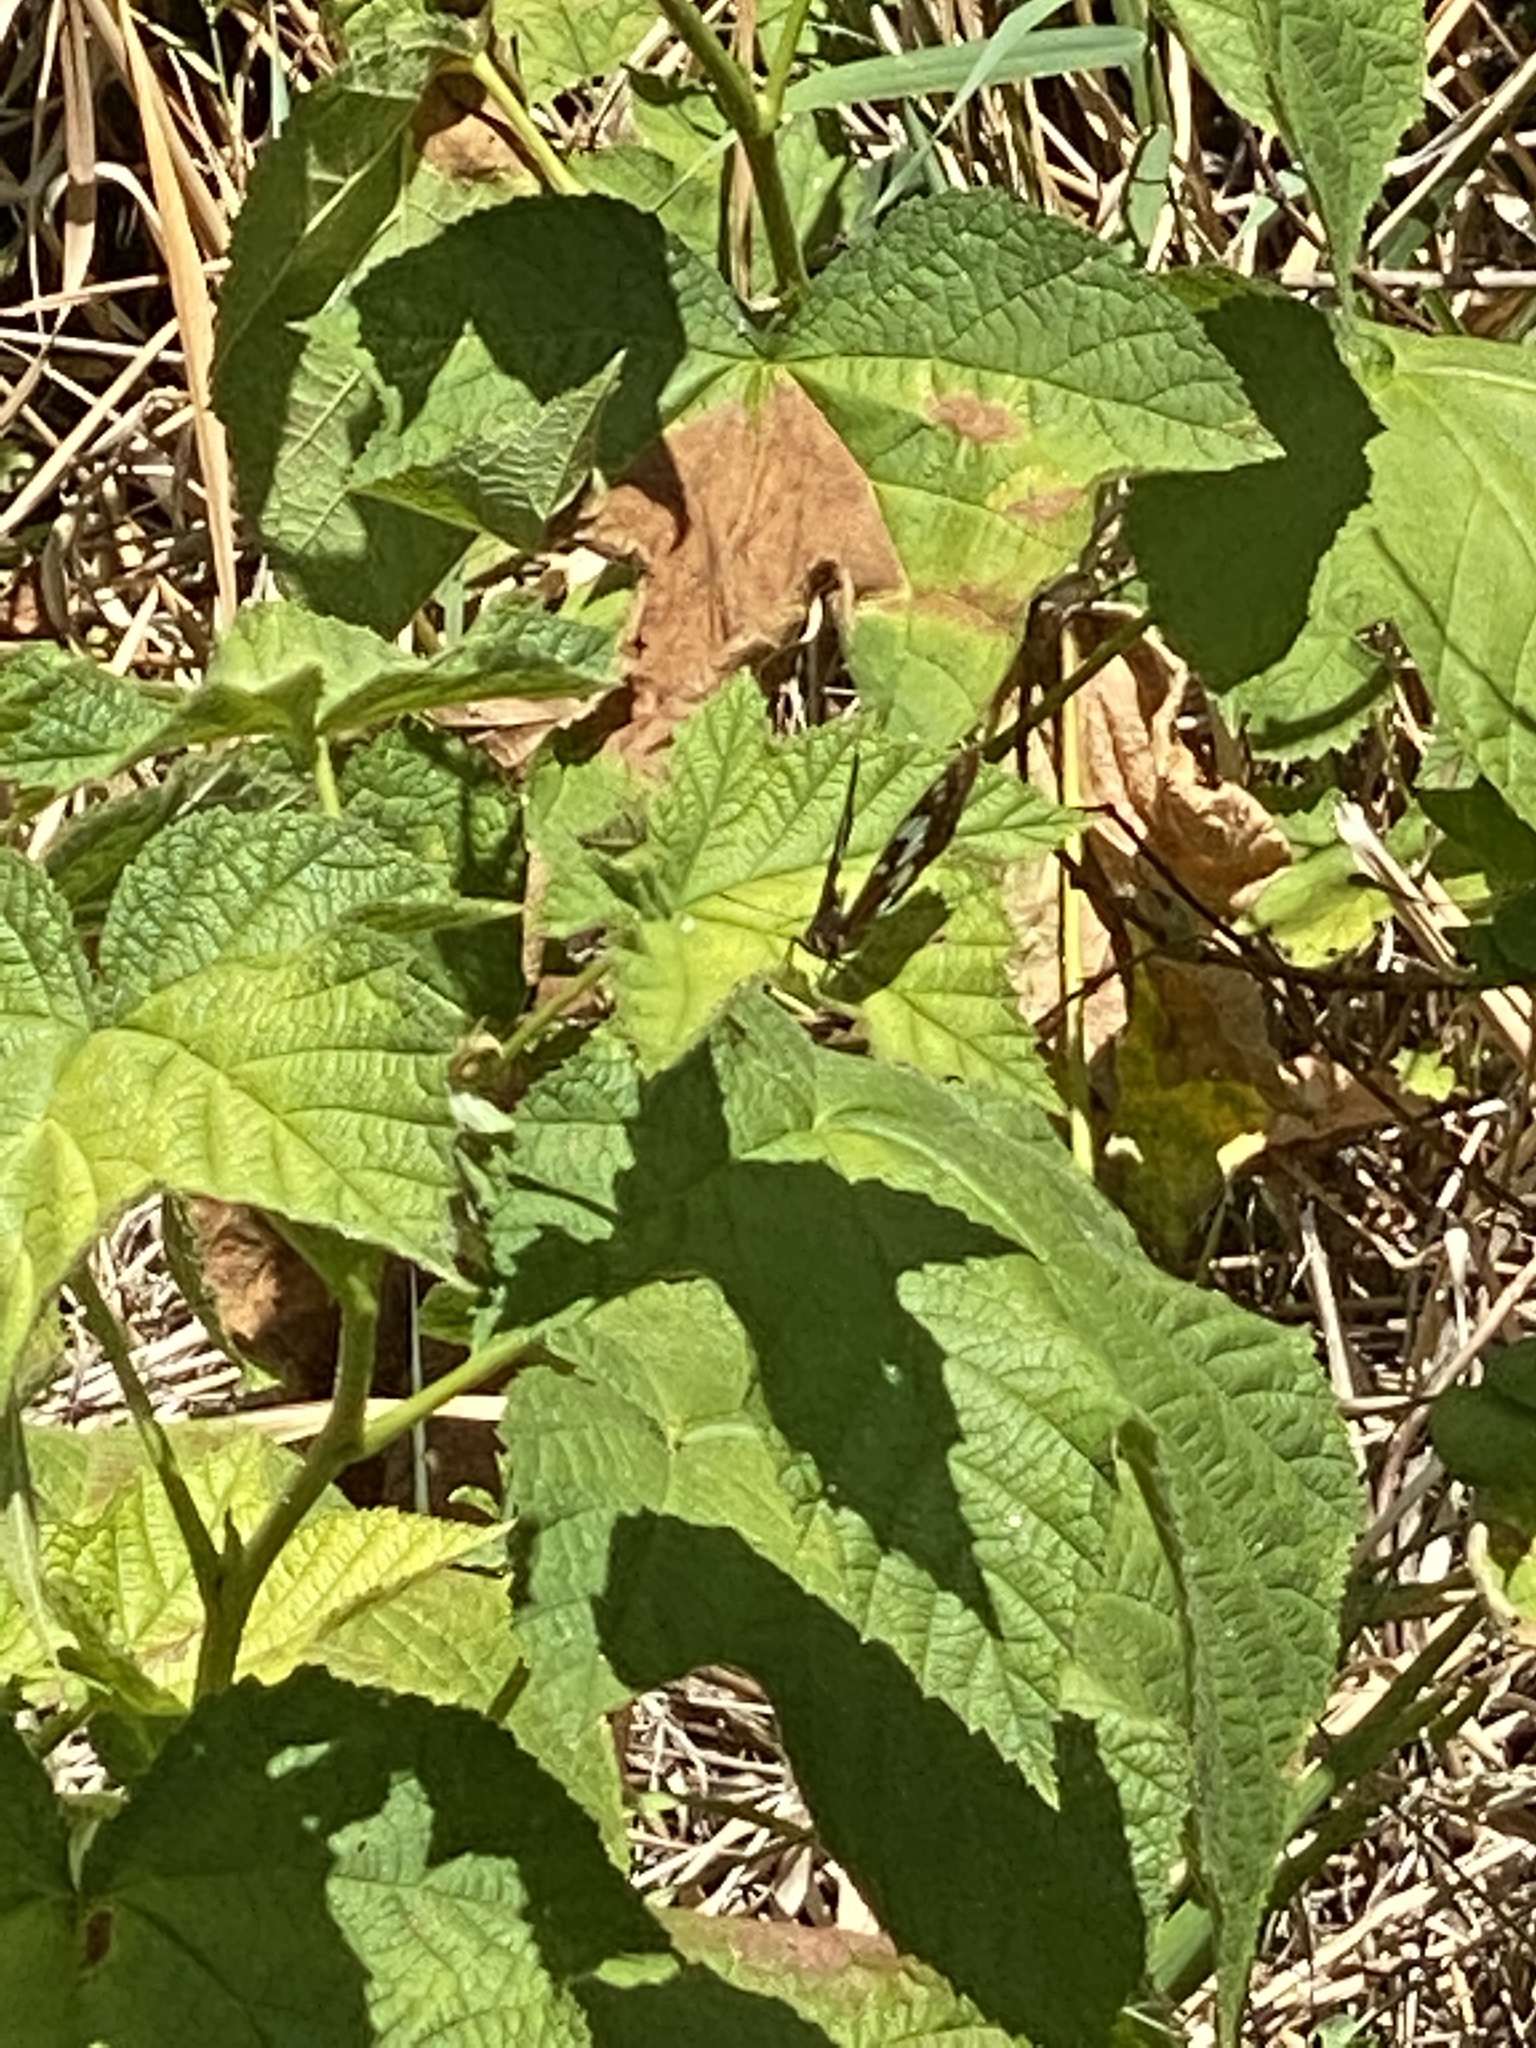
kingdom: Animalia
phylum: Arthropoda
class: Insecta
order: Lepidoptera
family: Nymphalidae
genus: Limenitis
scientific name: Limenitis lorquini
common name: Lorquin's admiral
